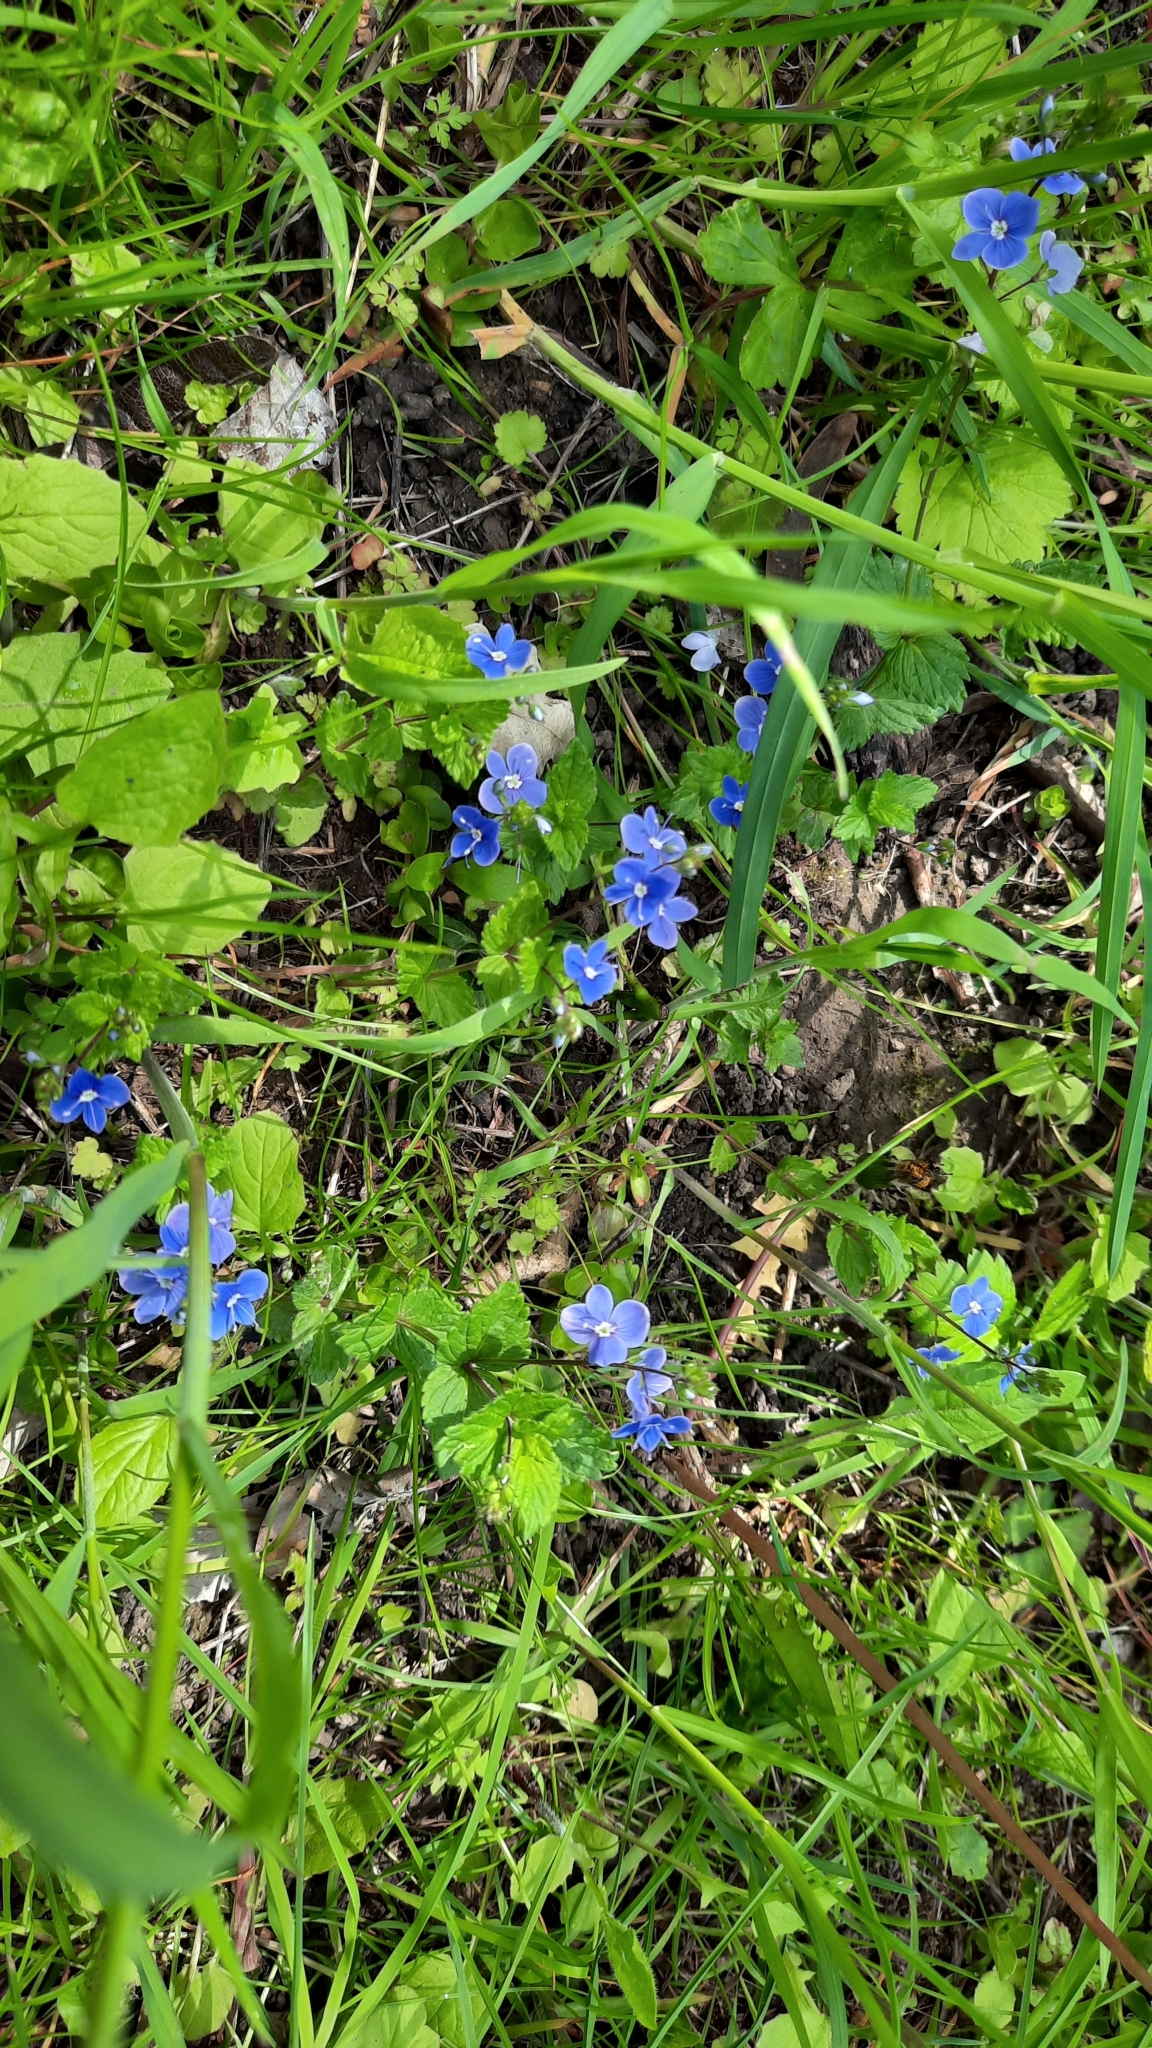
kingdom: Plantae
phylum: Tracheophyta
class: Magnoliopsida
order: Lamiales
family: Plantaginaceae
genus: Veronica
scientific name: Veronica chamaedrys
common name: Germander speedwell
